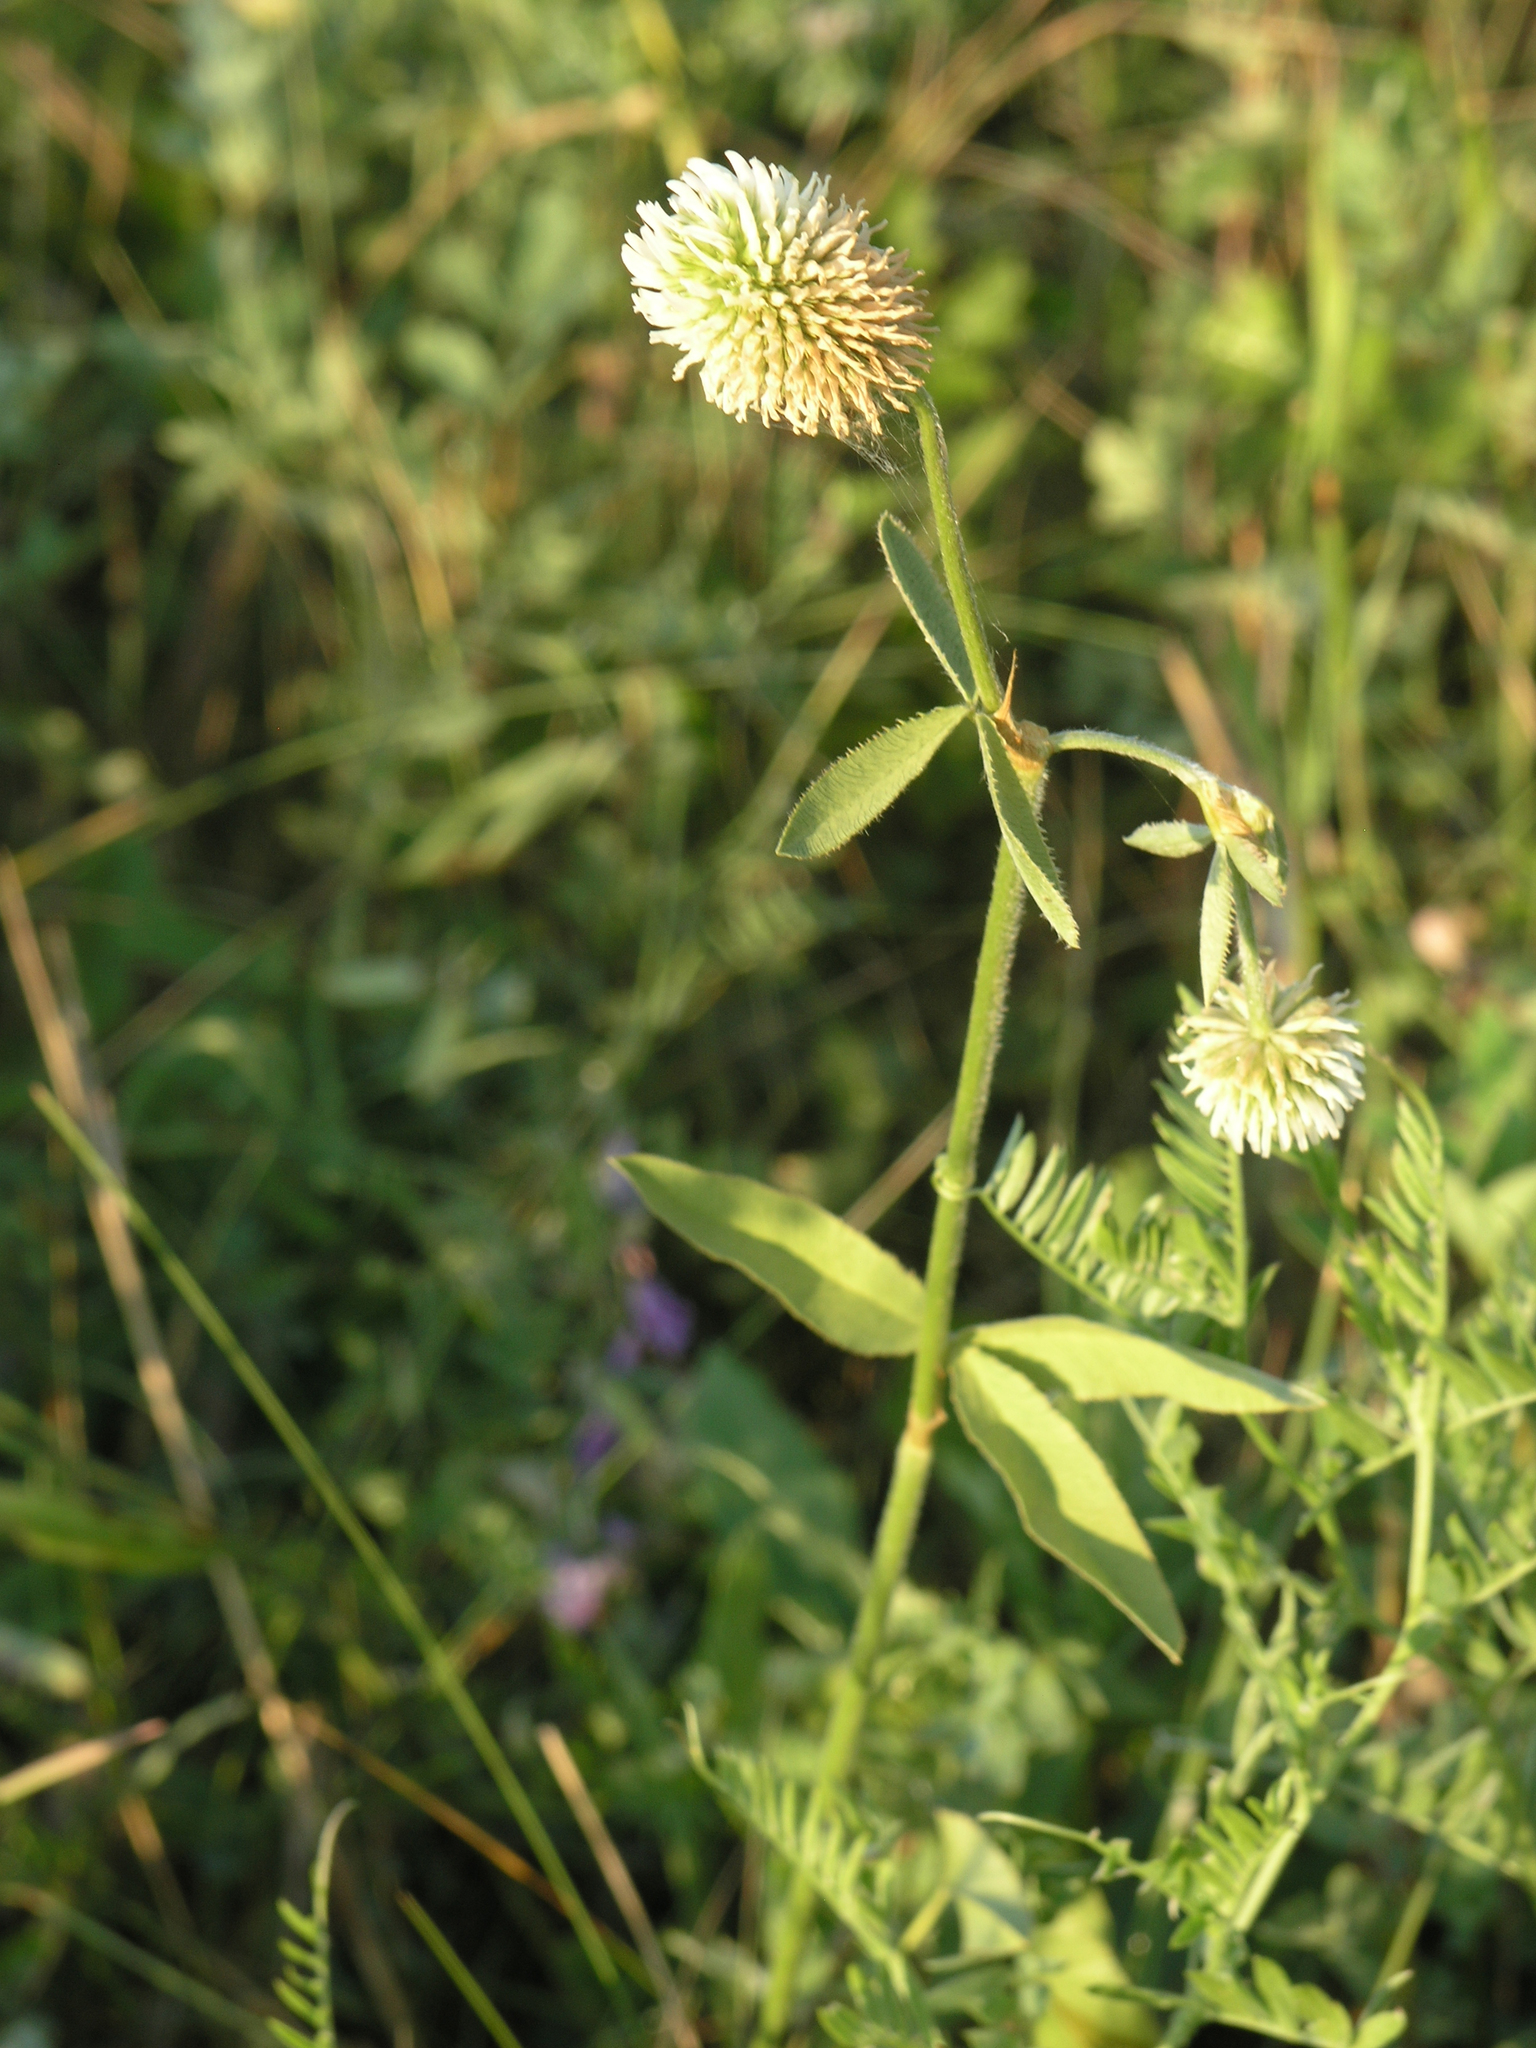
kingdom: Plantae
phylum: Tracheophyta
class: Magnoliopsida
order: Fabales
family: Fabaceae
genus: Trifolium
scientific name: Trifolium montanum
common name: Mountain clover
